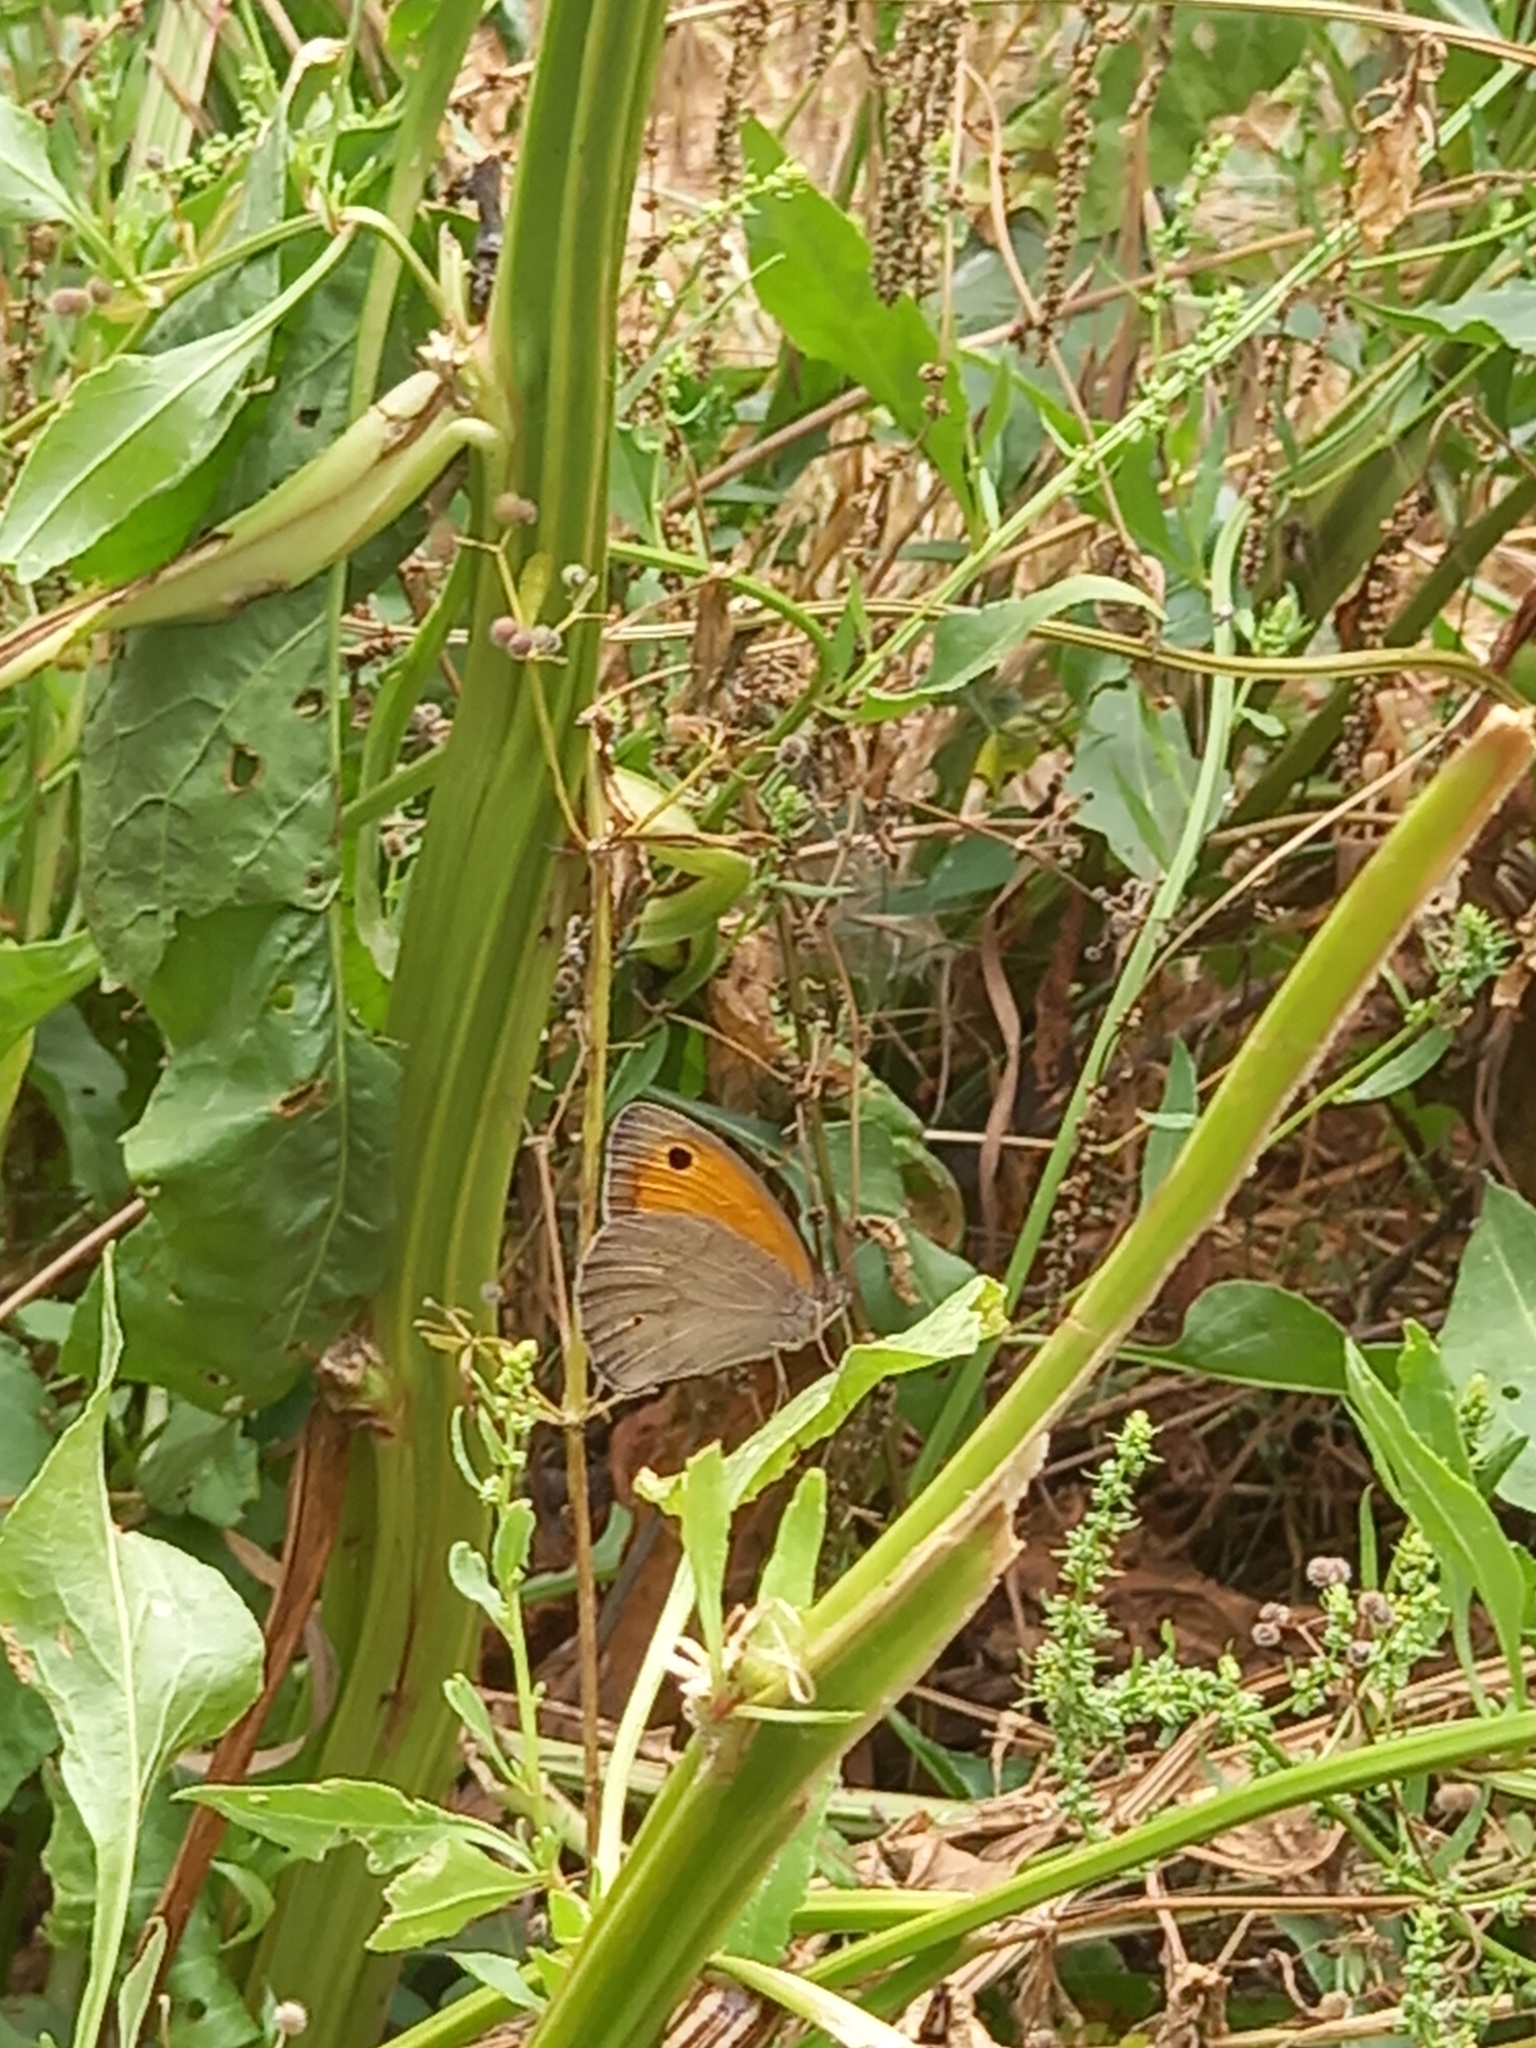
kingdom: Animalia
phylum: Arthropoda
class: Insecta
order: Lepidoptera
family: Nymphalidae
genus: Maniola
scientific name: Maniola jurtina
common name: Meadow brown
